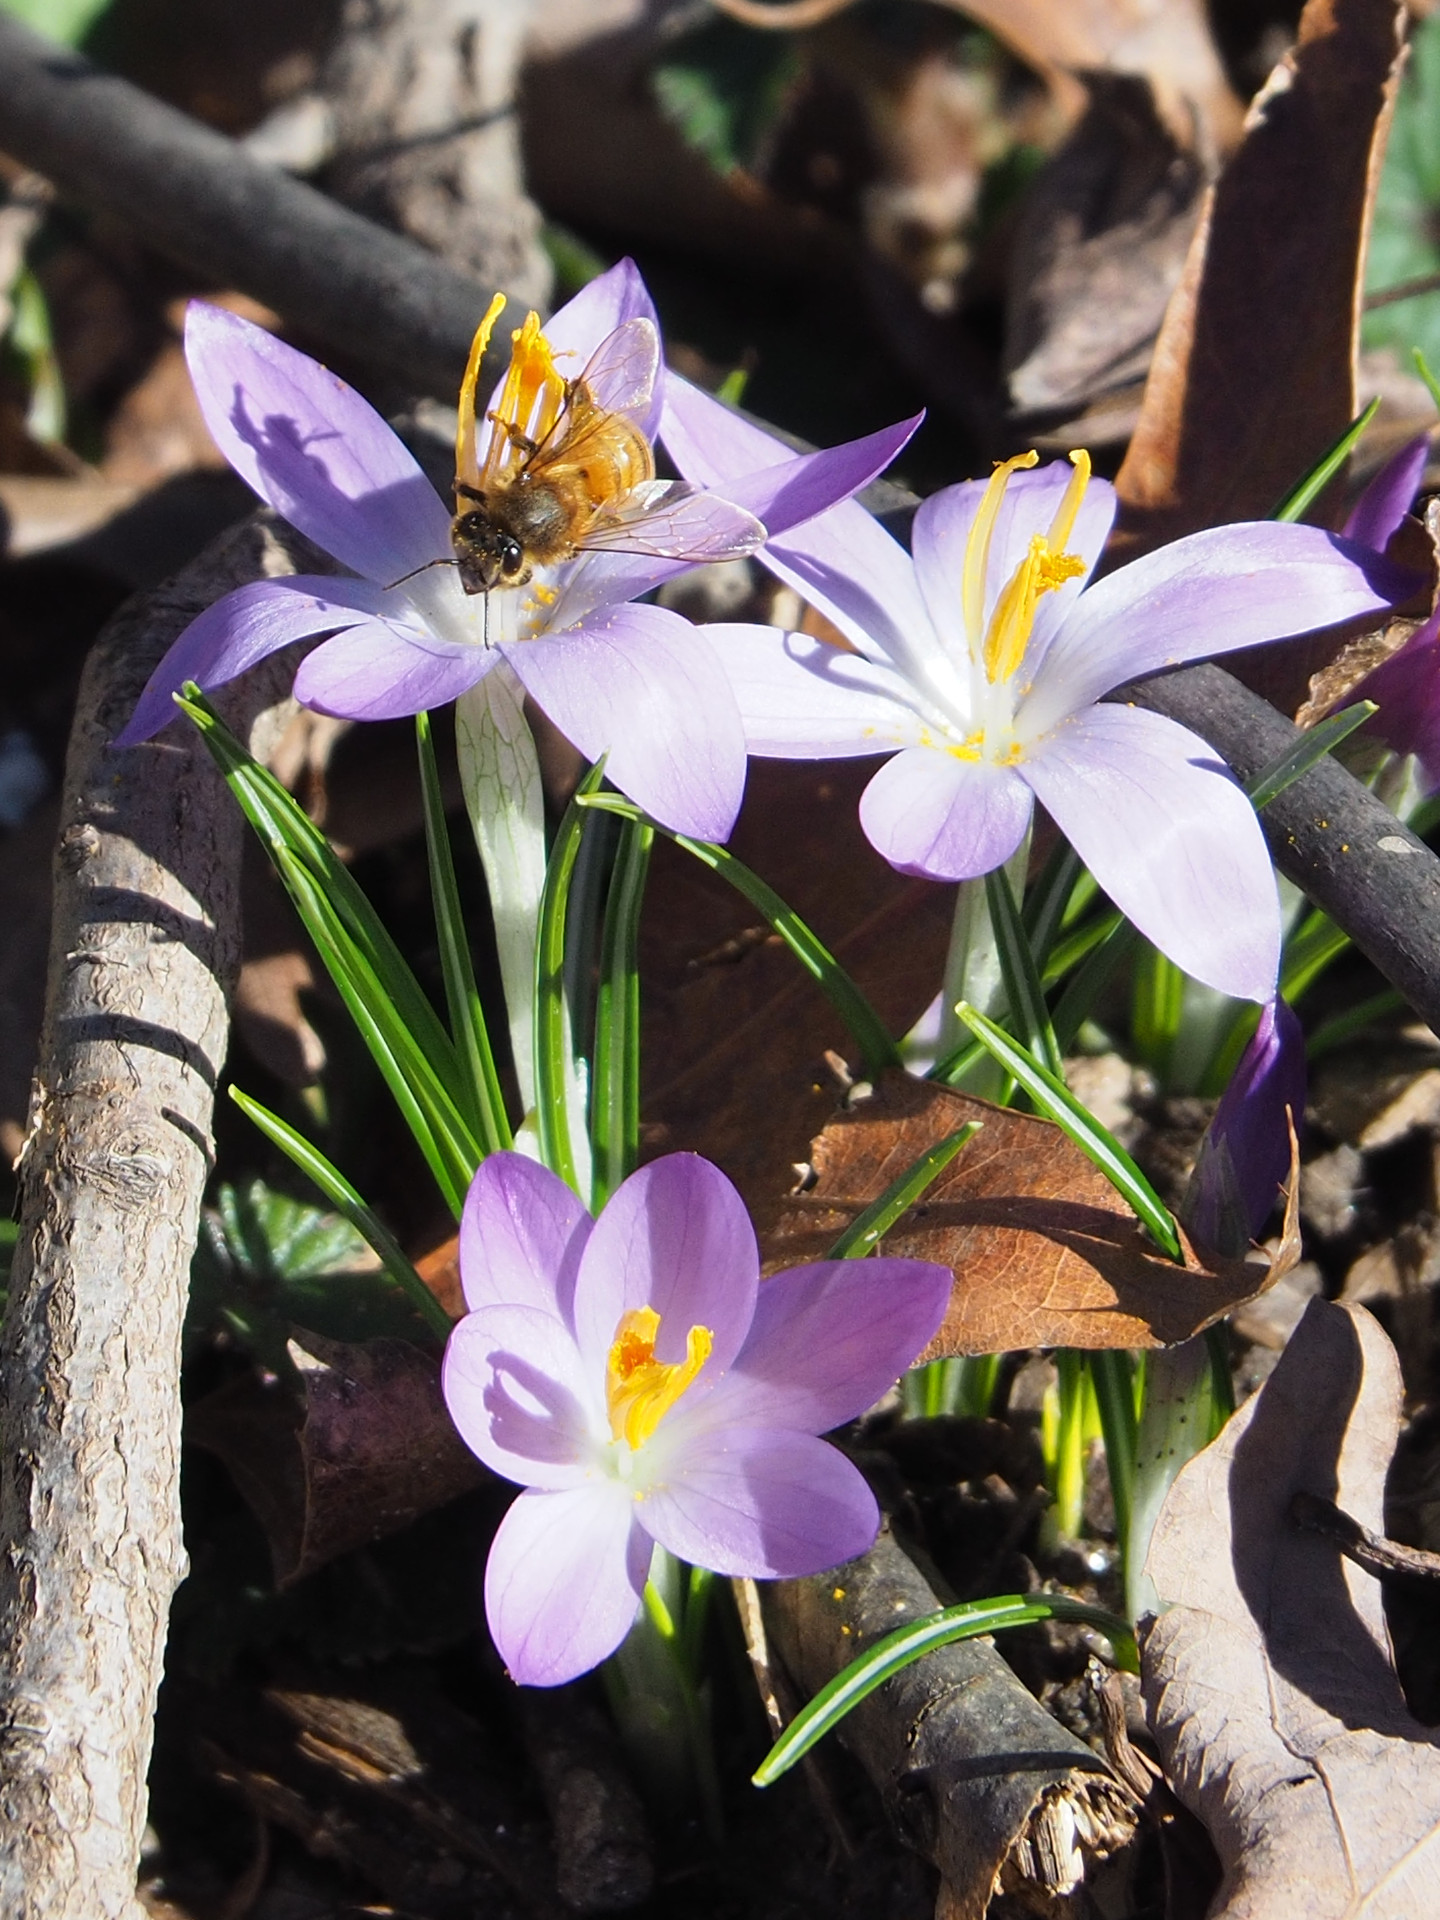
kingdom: Animalia
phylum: Arthropoda
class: Insecta
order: Hymenoptera
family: Apidae
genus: Apis
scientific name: Apis mellifera
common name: Honey bee
